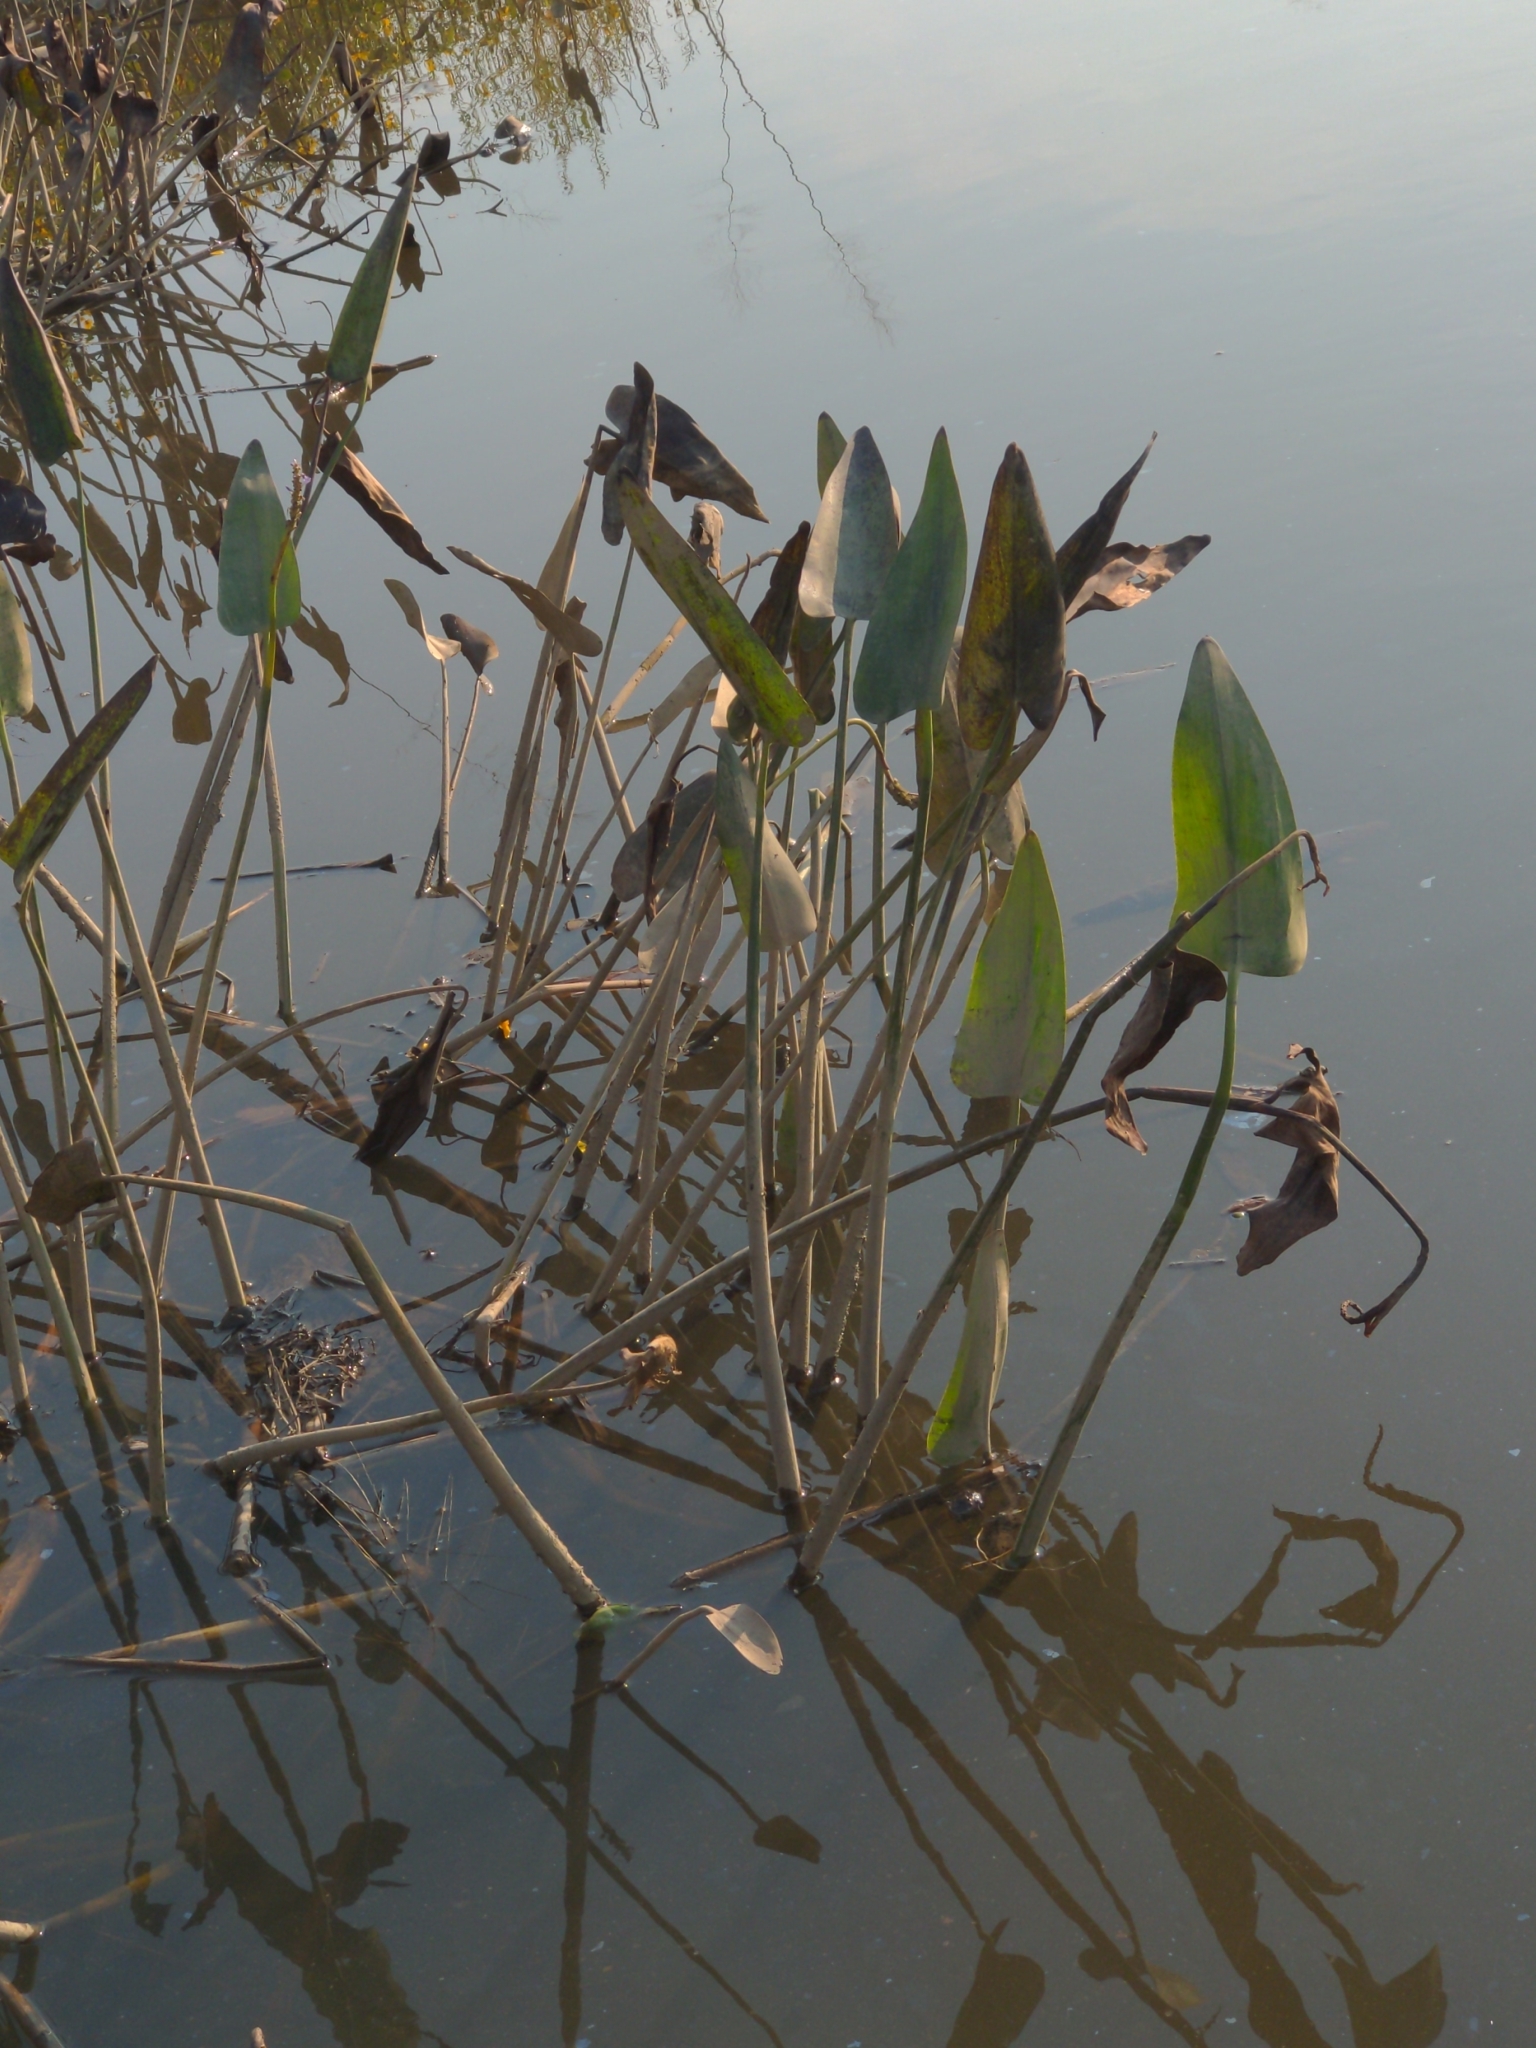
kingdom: Plantae
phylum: Tracheophyta
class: Liliopsida
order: Commelinales
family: Pontederiaceae
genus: Pontederia
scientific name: Pontederia cordata
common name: Pickerelweed
